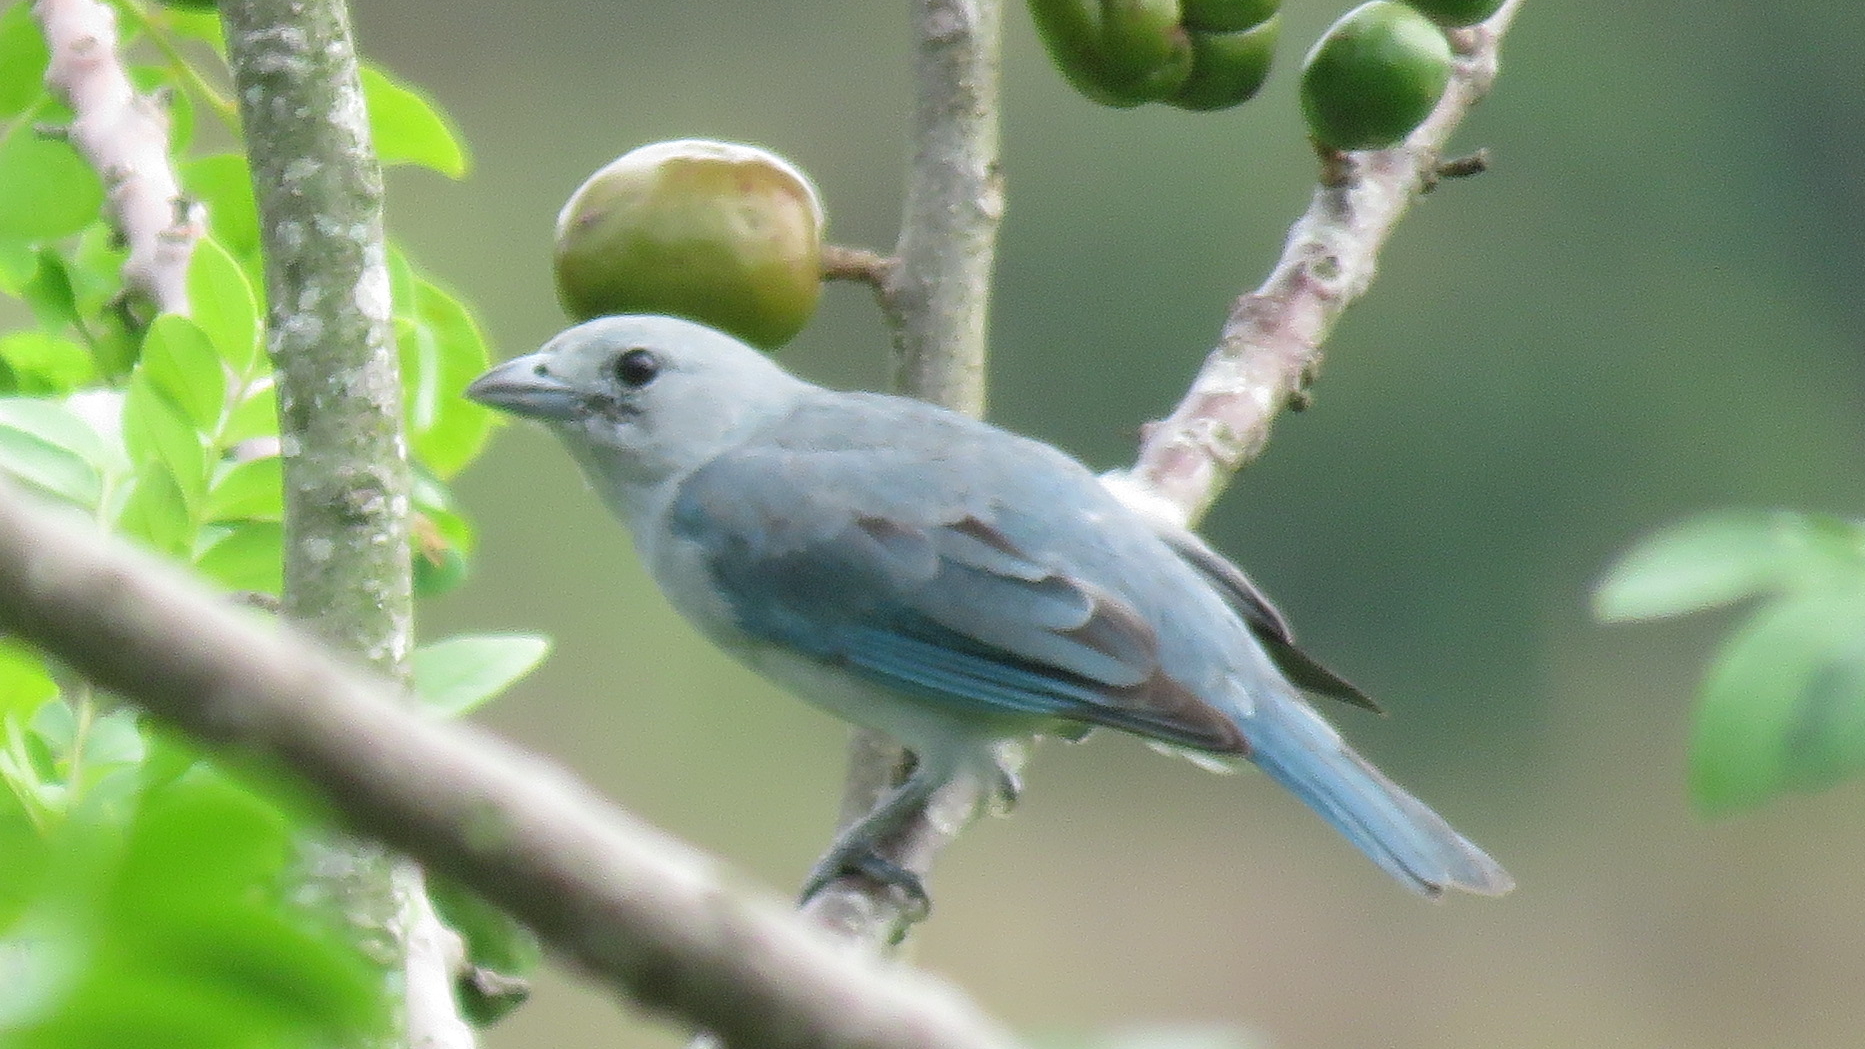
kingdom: Animalia
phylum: Chordata
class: Aves
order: Passeriformes
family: Thraupidae
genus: Thraupis
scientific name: Thraupis sayaca
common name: Sayaca tanager
